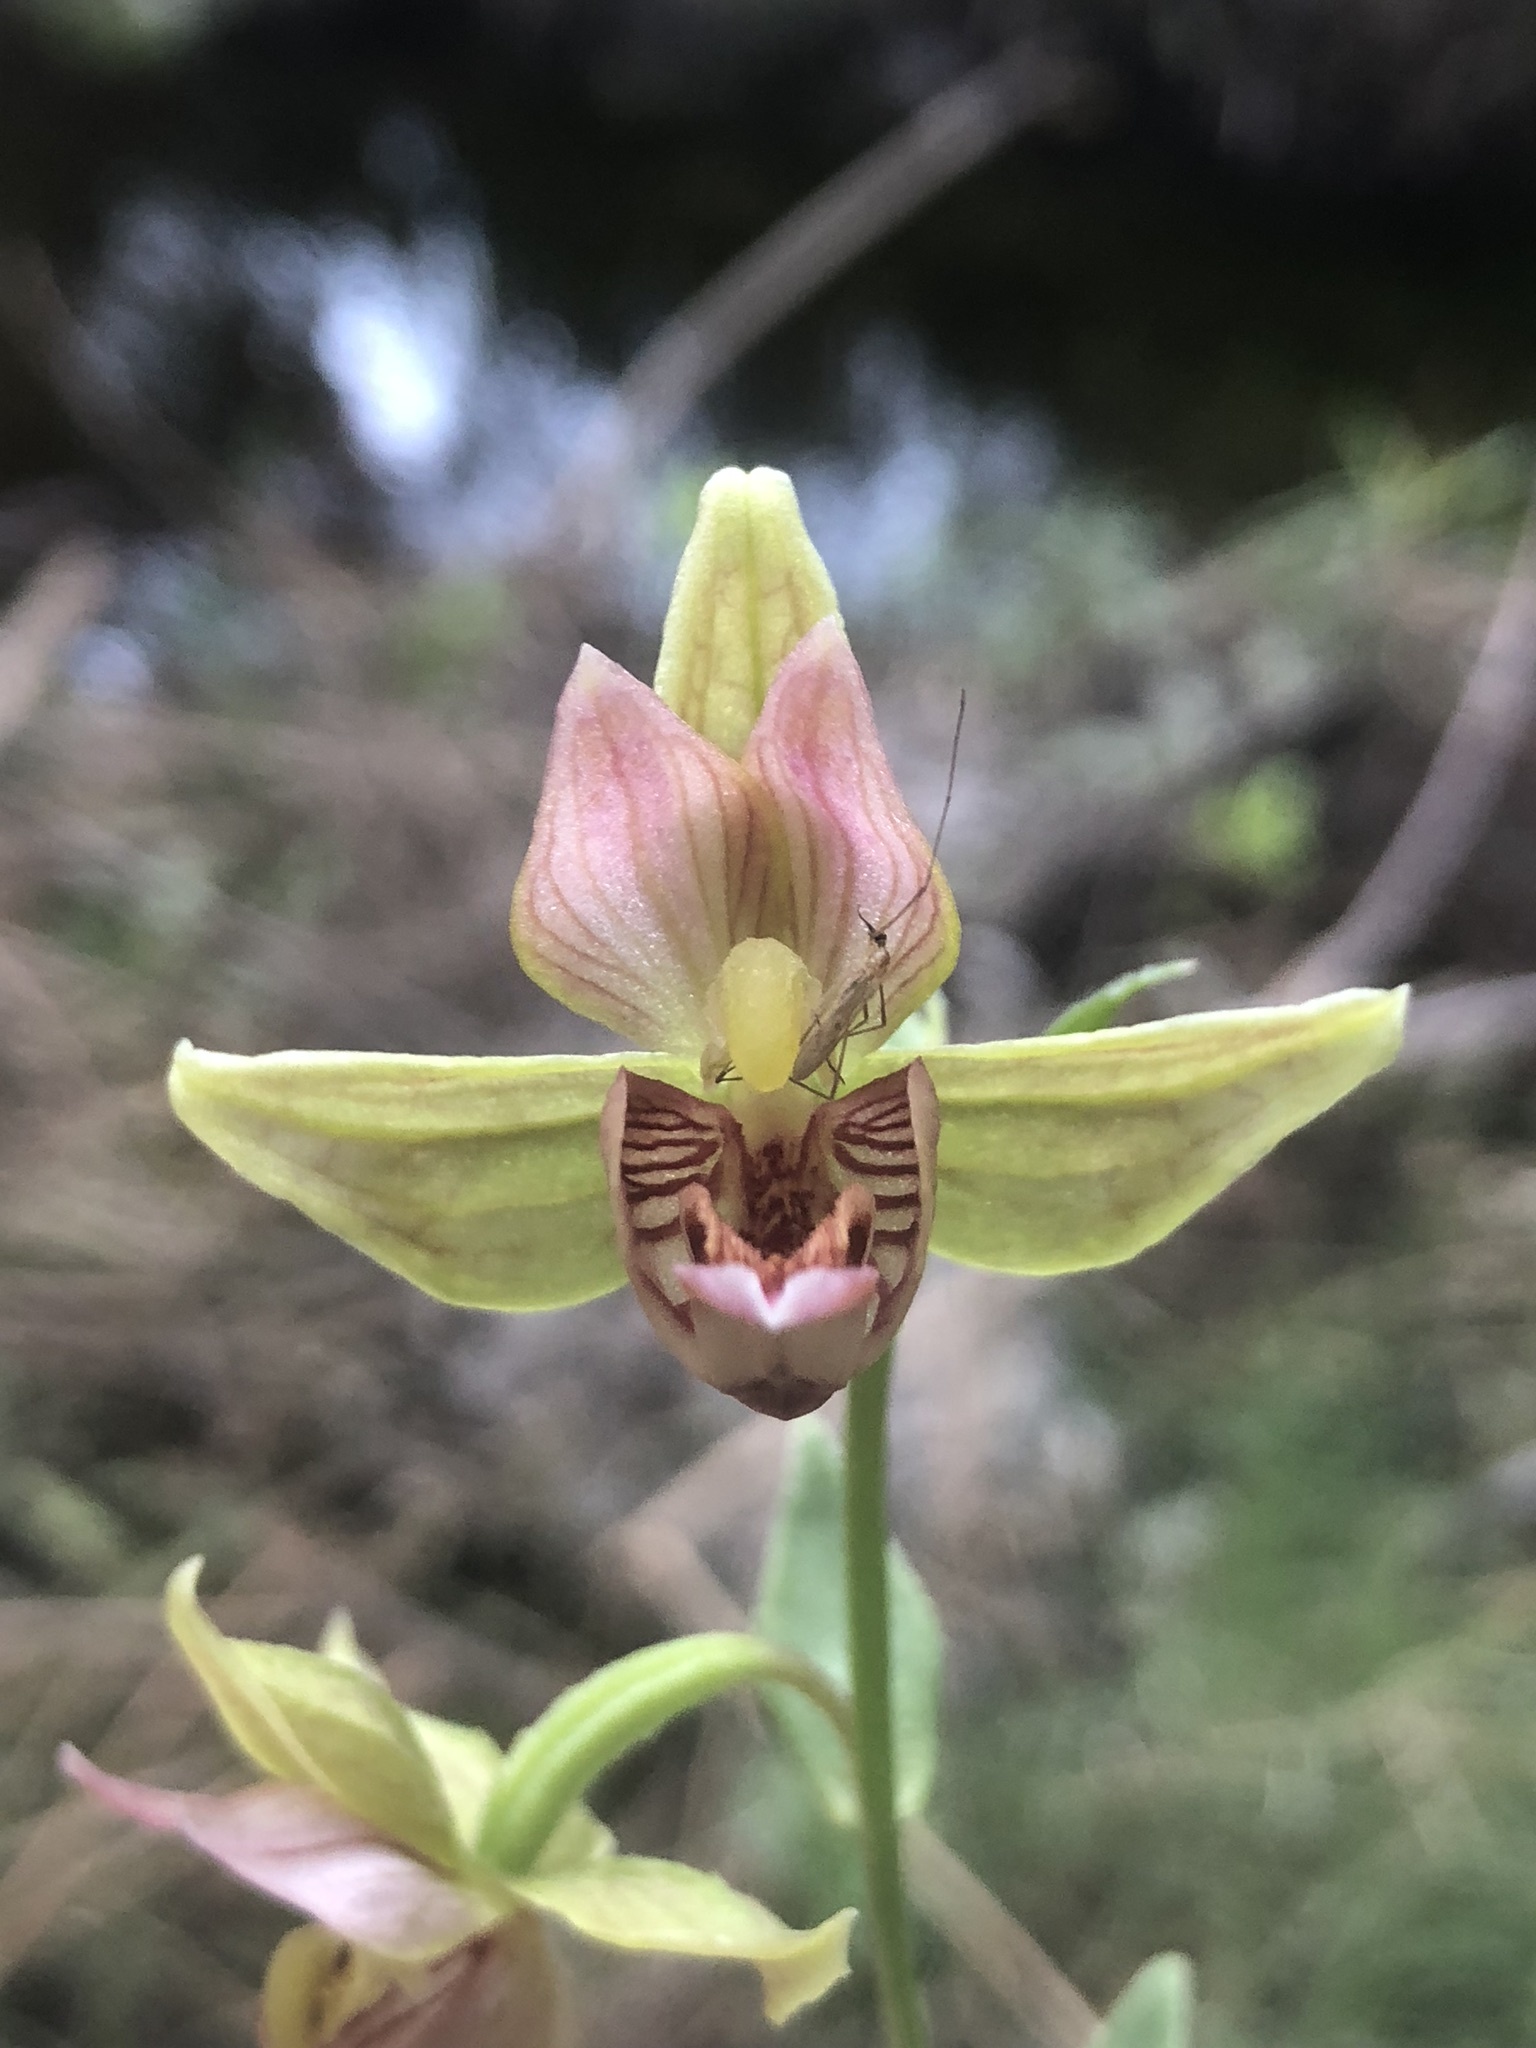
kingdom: Plantae
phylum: Tracheophyta
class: Liliopsida
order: Asparagales
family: Orchidaceae
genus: Epipactis
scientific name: Epipactis gigantea
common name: Chatterbox
